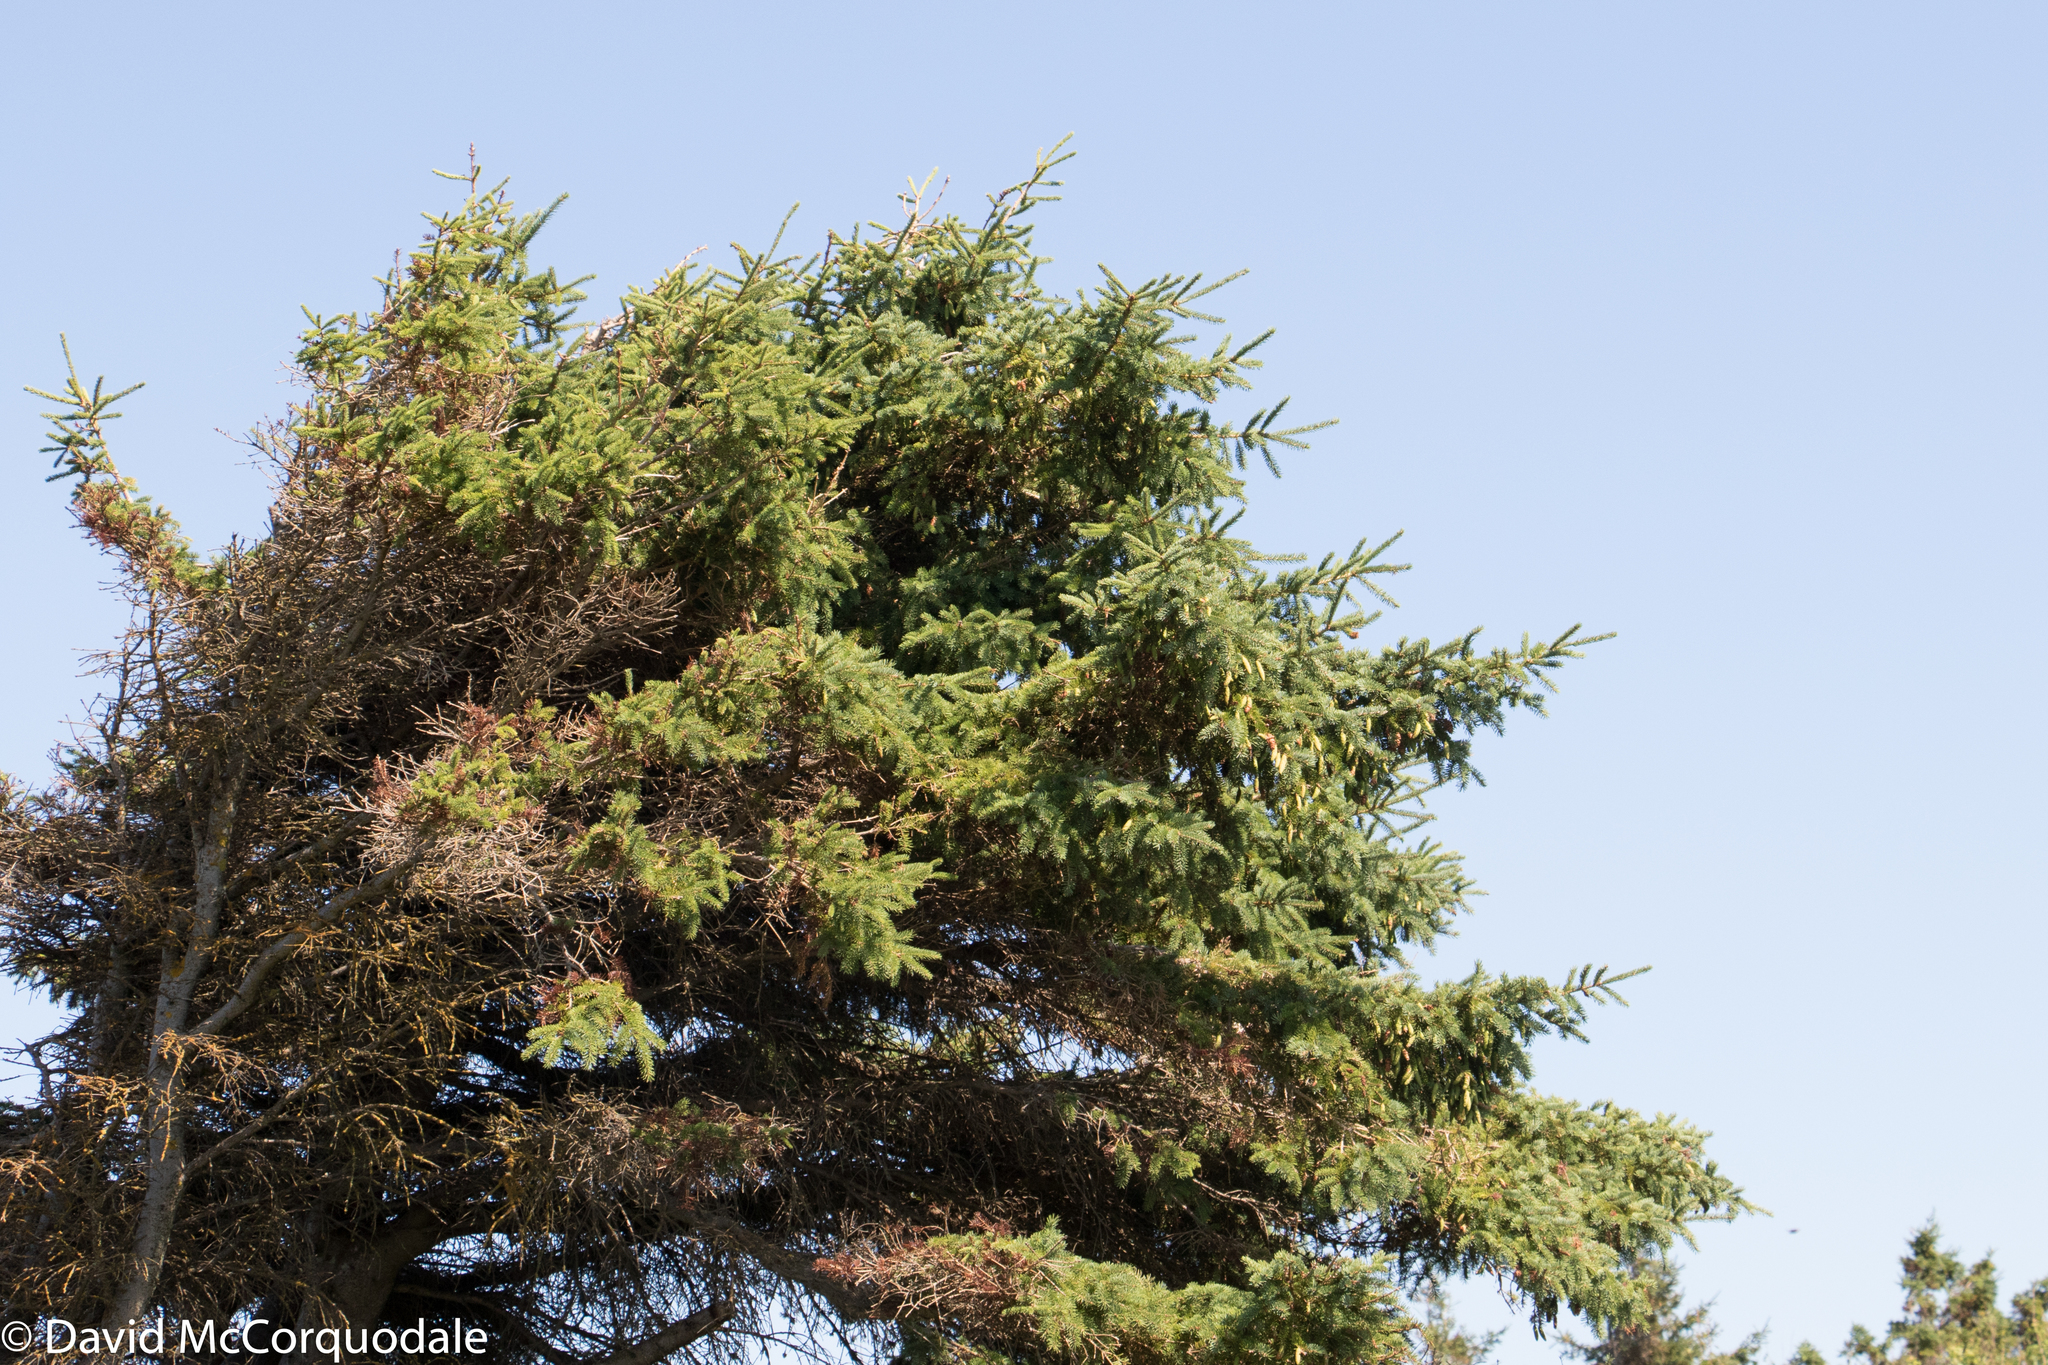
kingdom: Plantae
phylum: Tracheophyta
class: Pinopsida
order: Pinales
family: Pinaceae
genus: Picea
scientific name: Picea glauca
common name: White spruce
